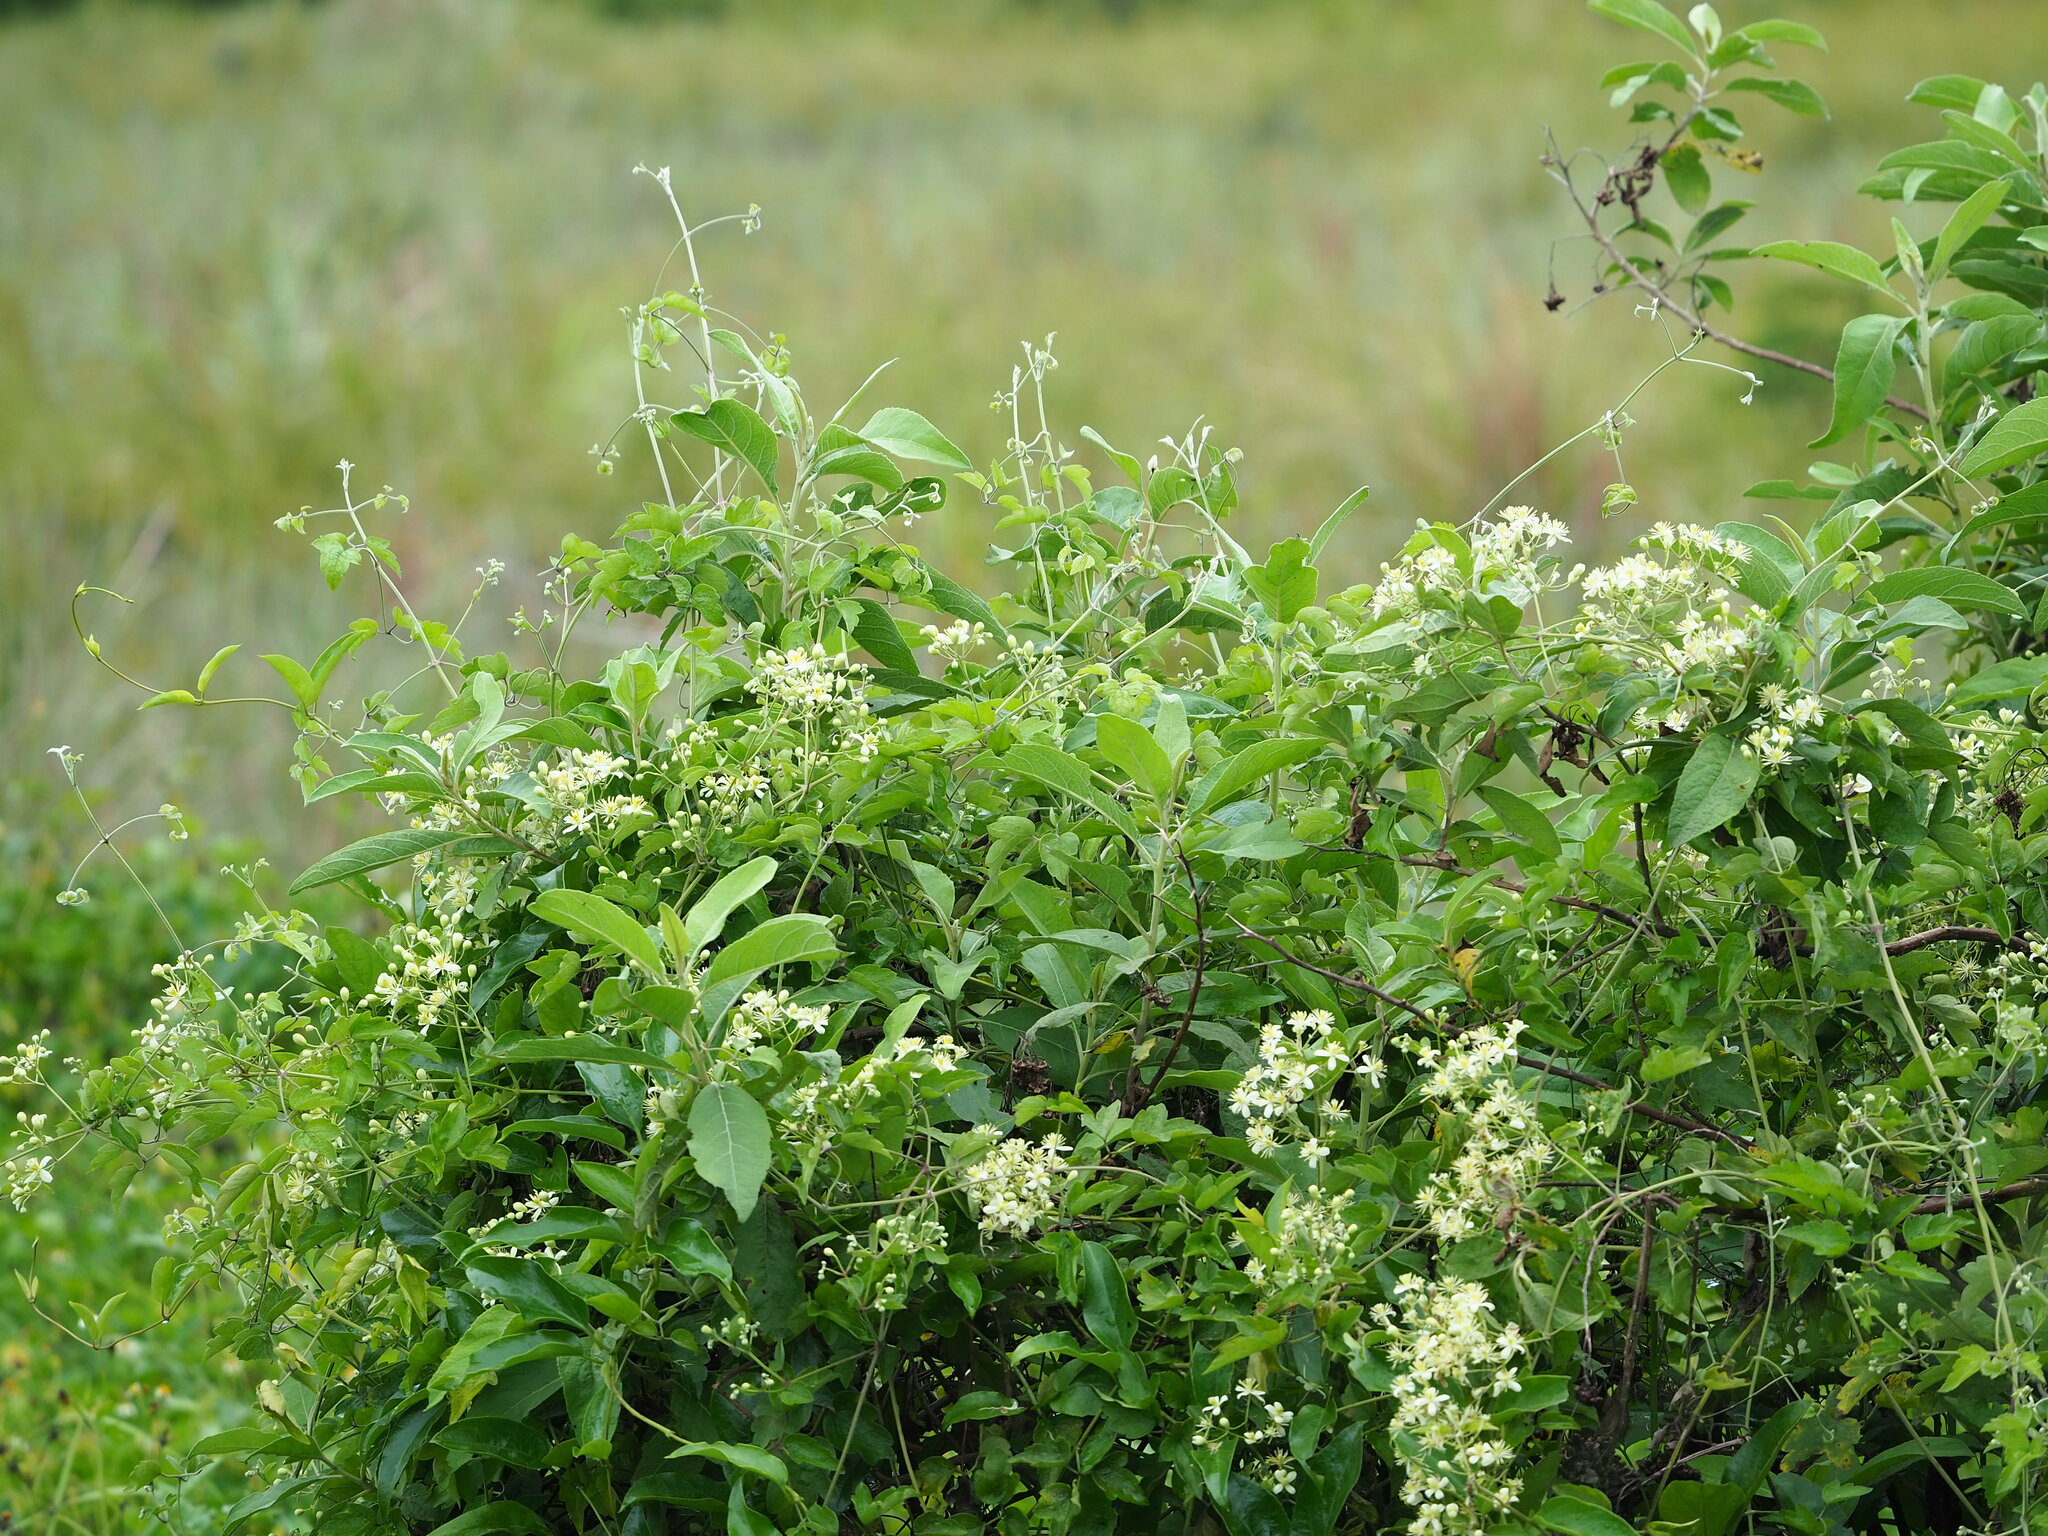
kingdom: Plantae
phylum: Tracheophyta
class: Magnoliopsida
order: Ranunculales
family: Ranunculaceae
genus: Clematis
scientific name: Clematis grata
